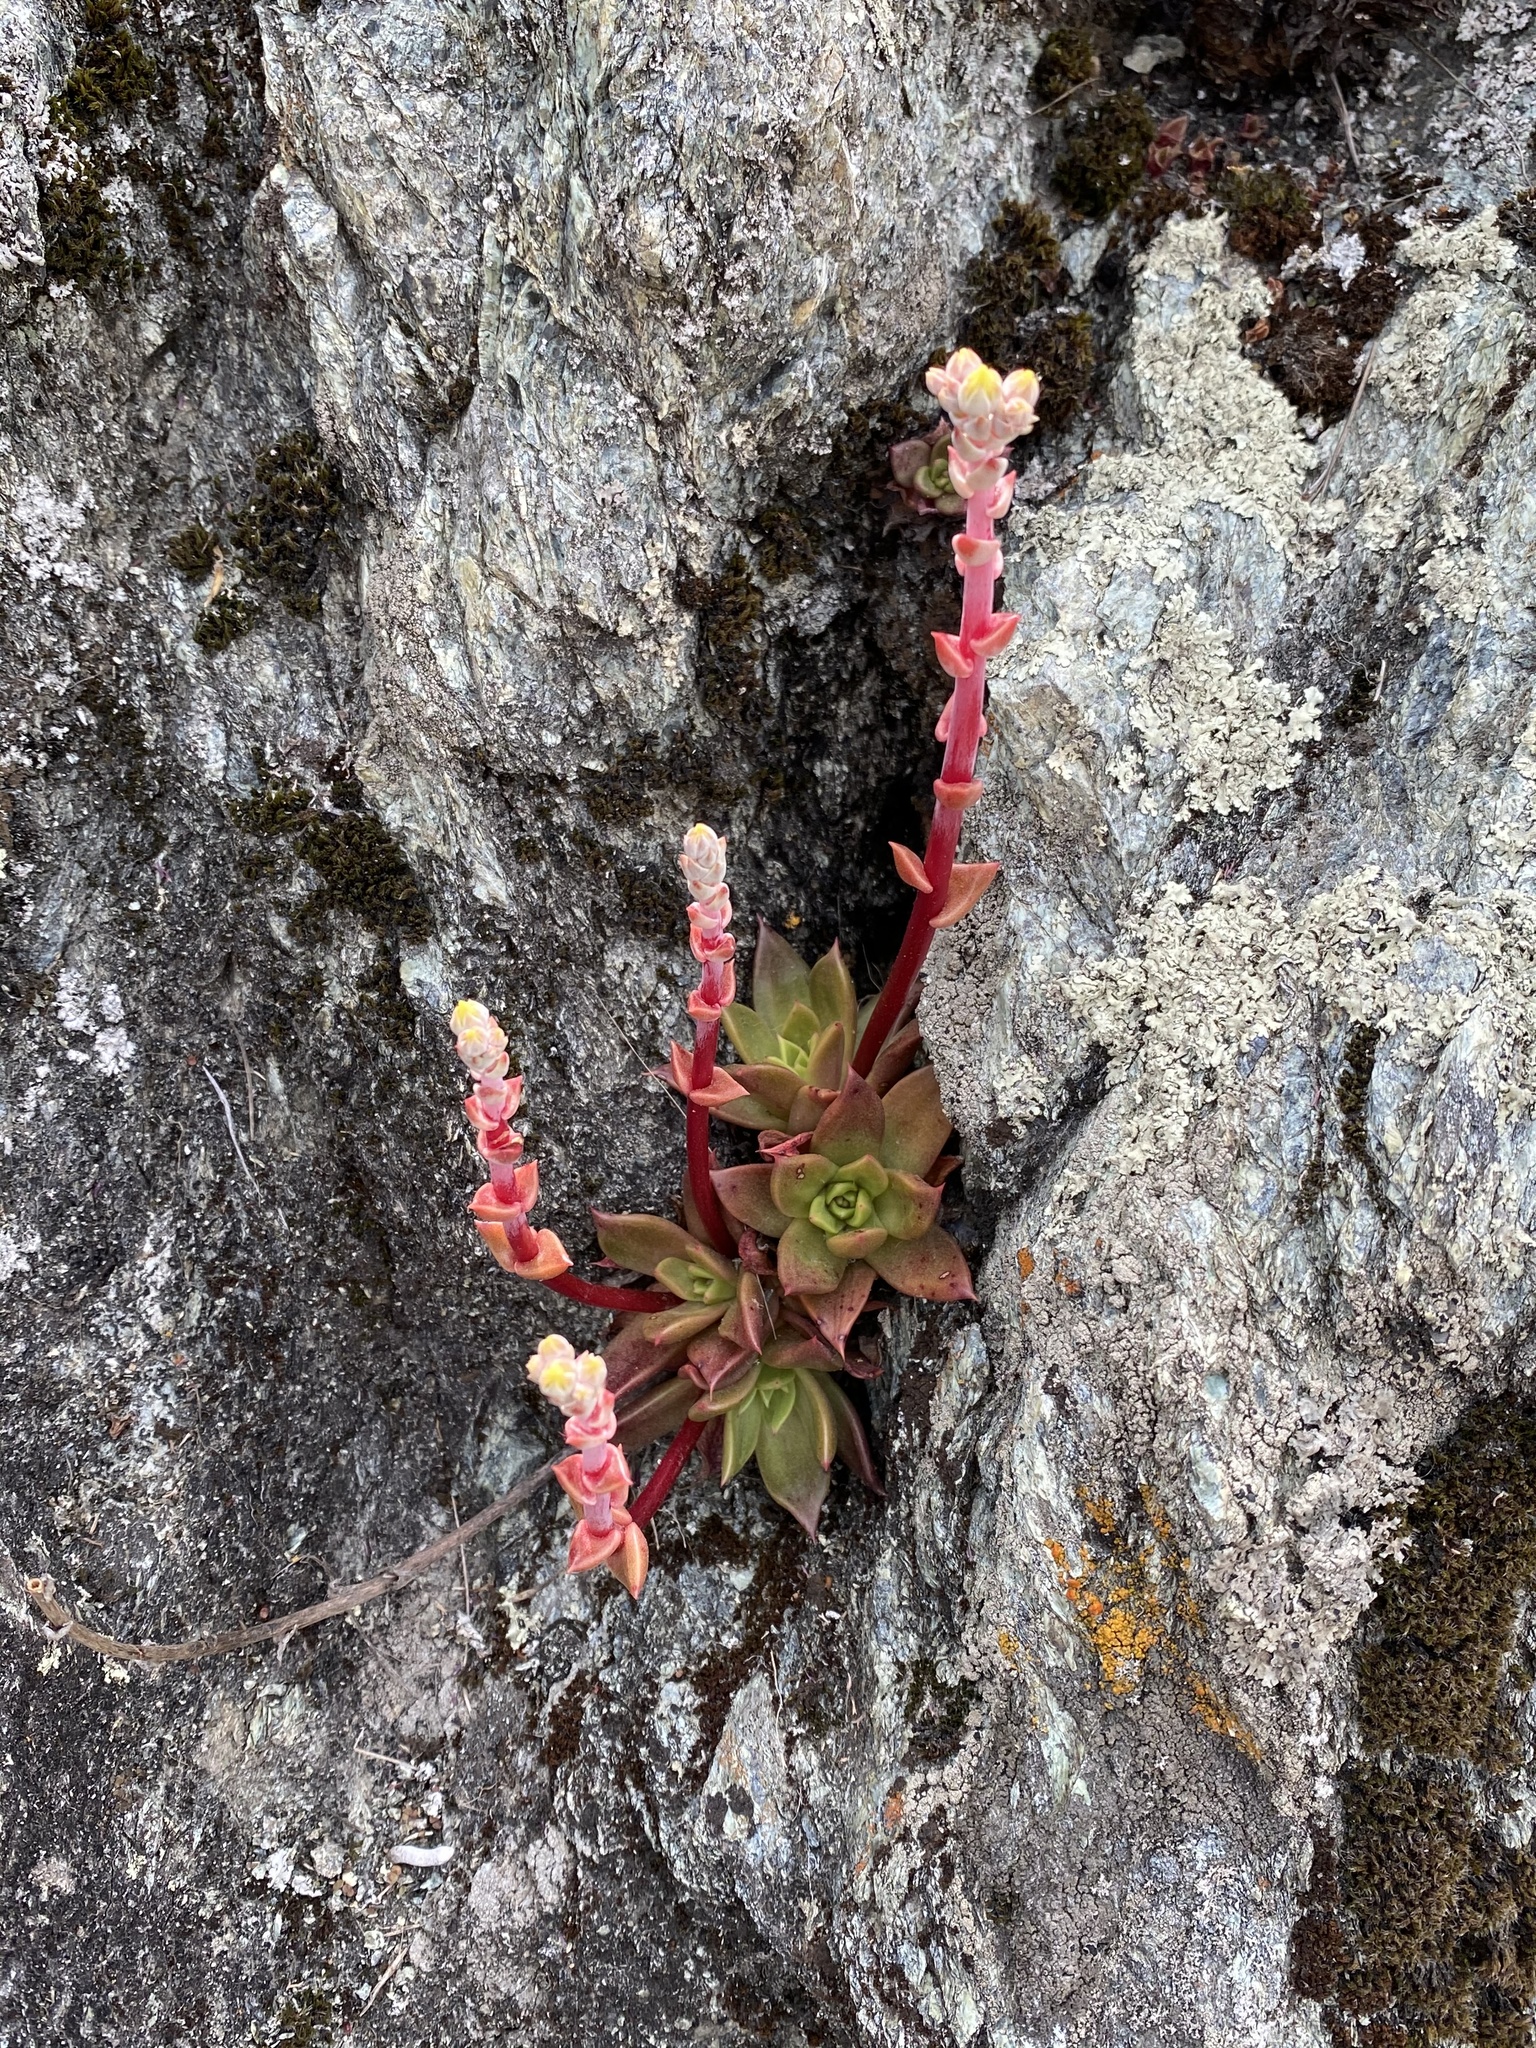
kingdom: Plantae
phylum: Tracheophyta
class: Magnoliopsida
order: Saxifragales
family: Crassulaceae
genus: Dudleya
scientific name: Dudleya farinosa
